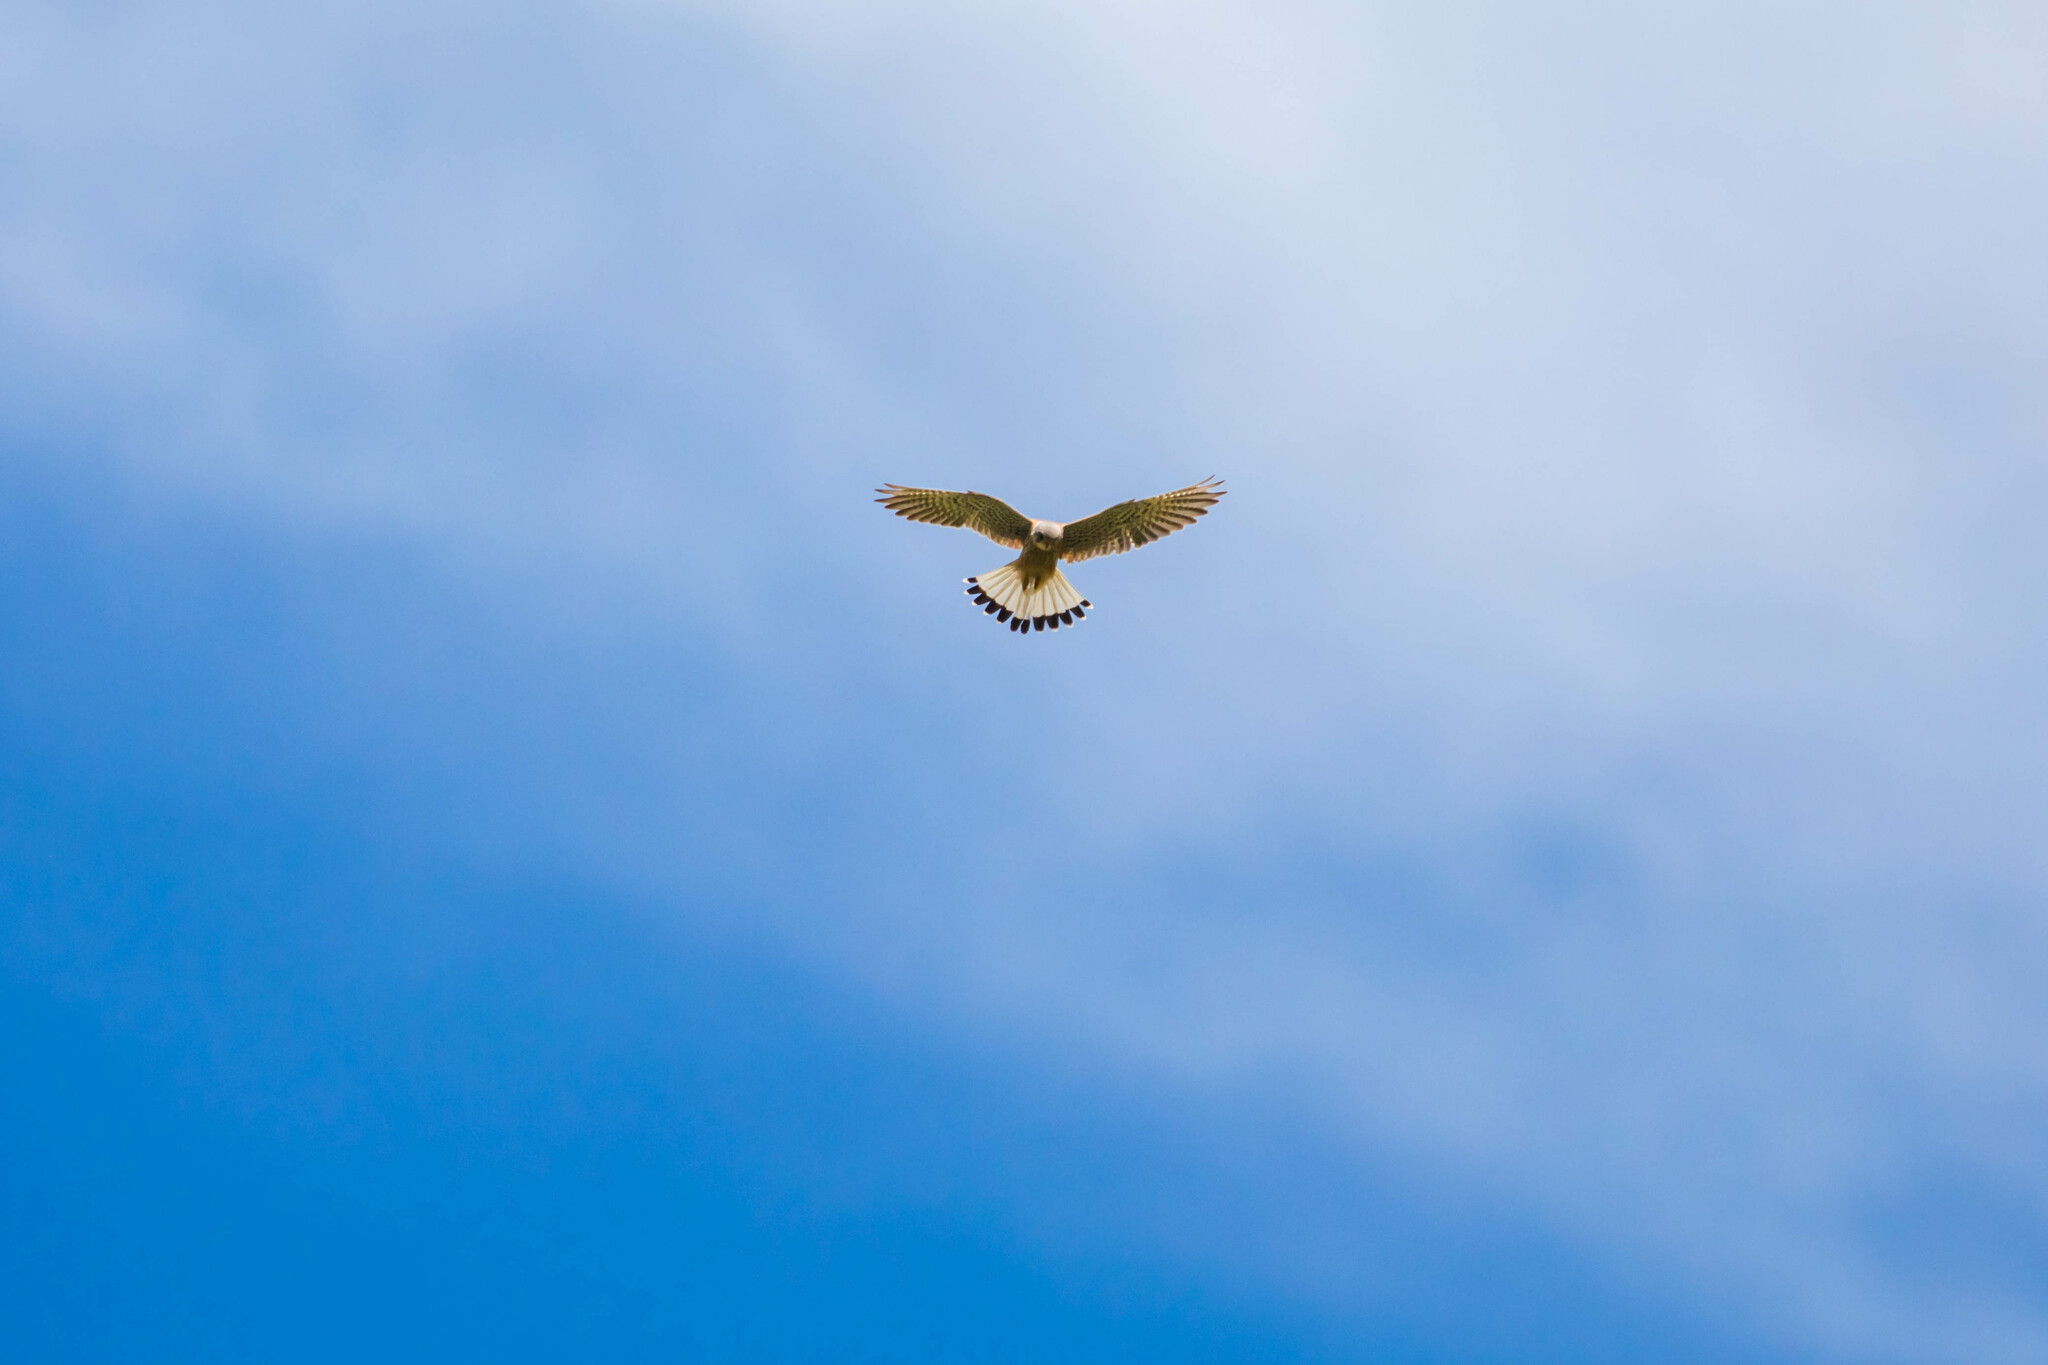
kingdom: Animalia
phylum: Chordata
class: Aves
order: Falconiformes
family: Falconidae
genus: Falco
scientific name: Falco tinnunculus
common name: Common kestrel
